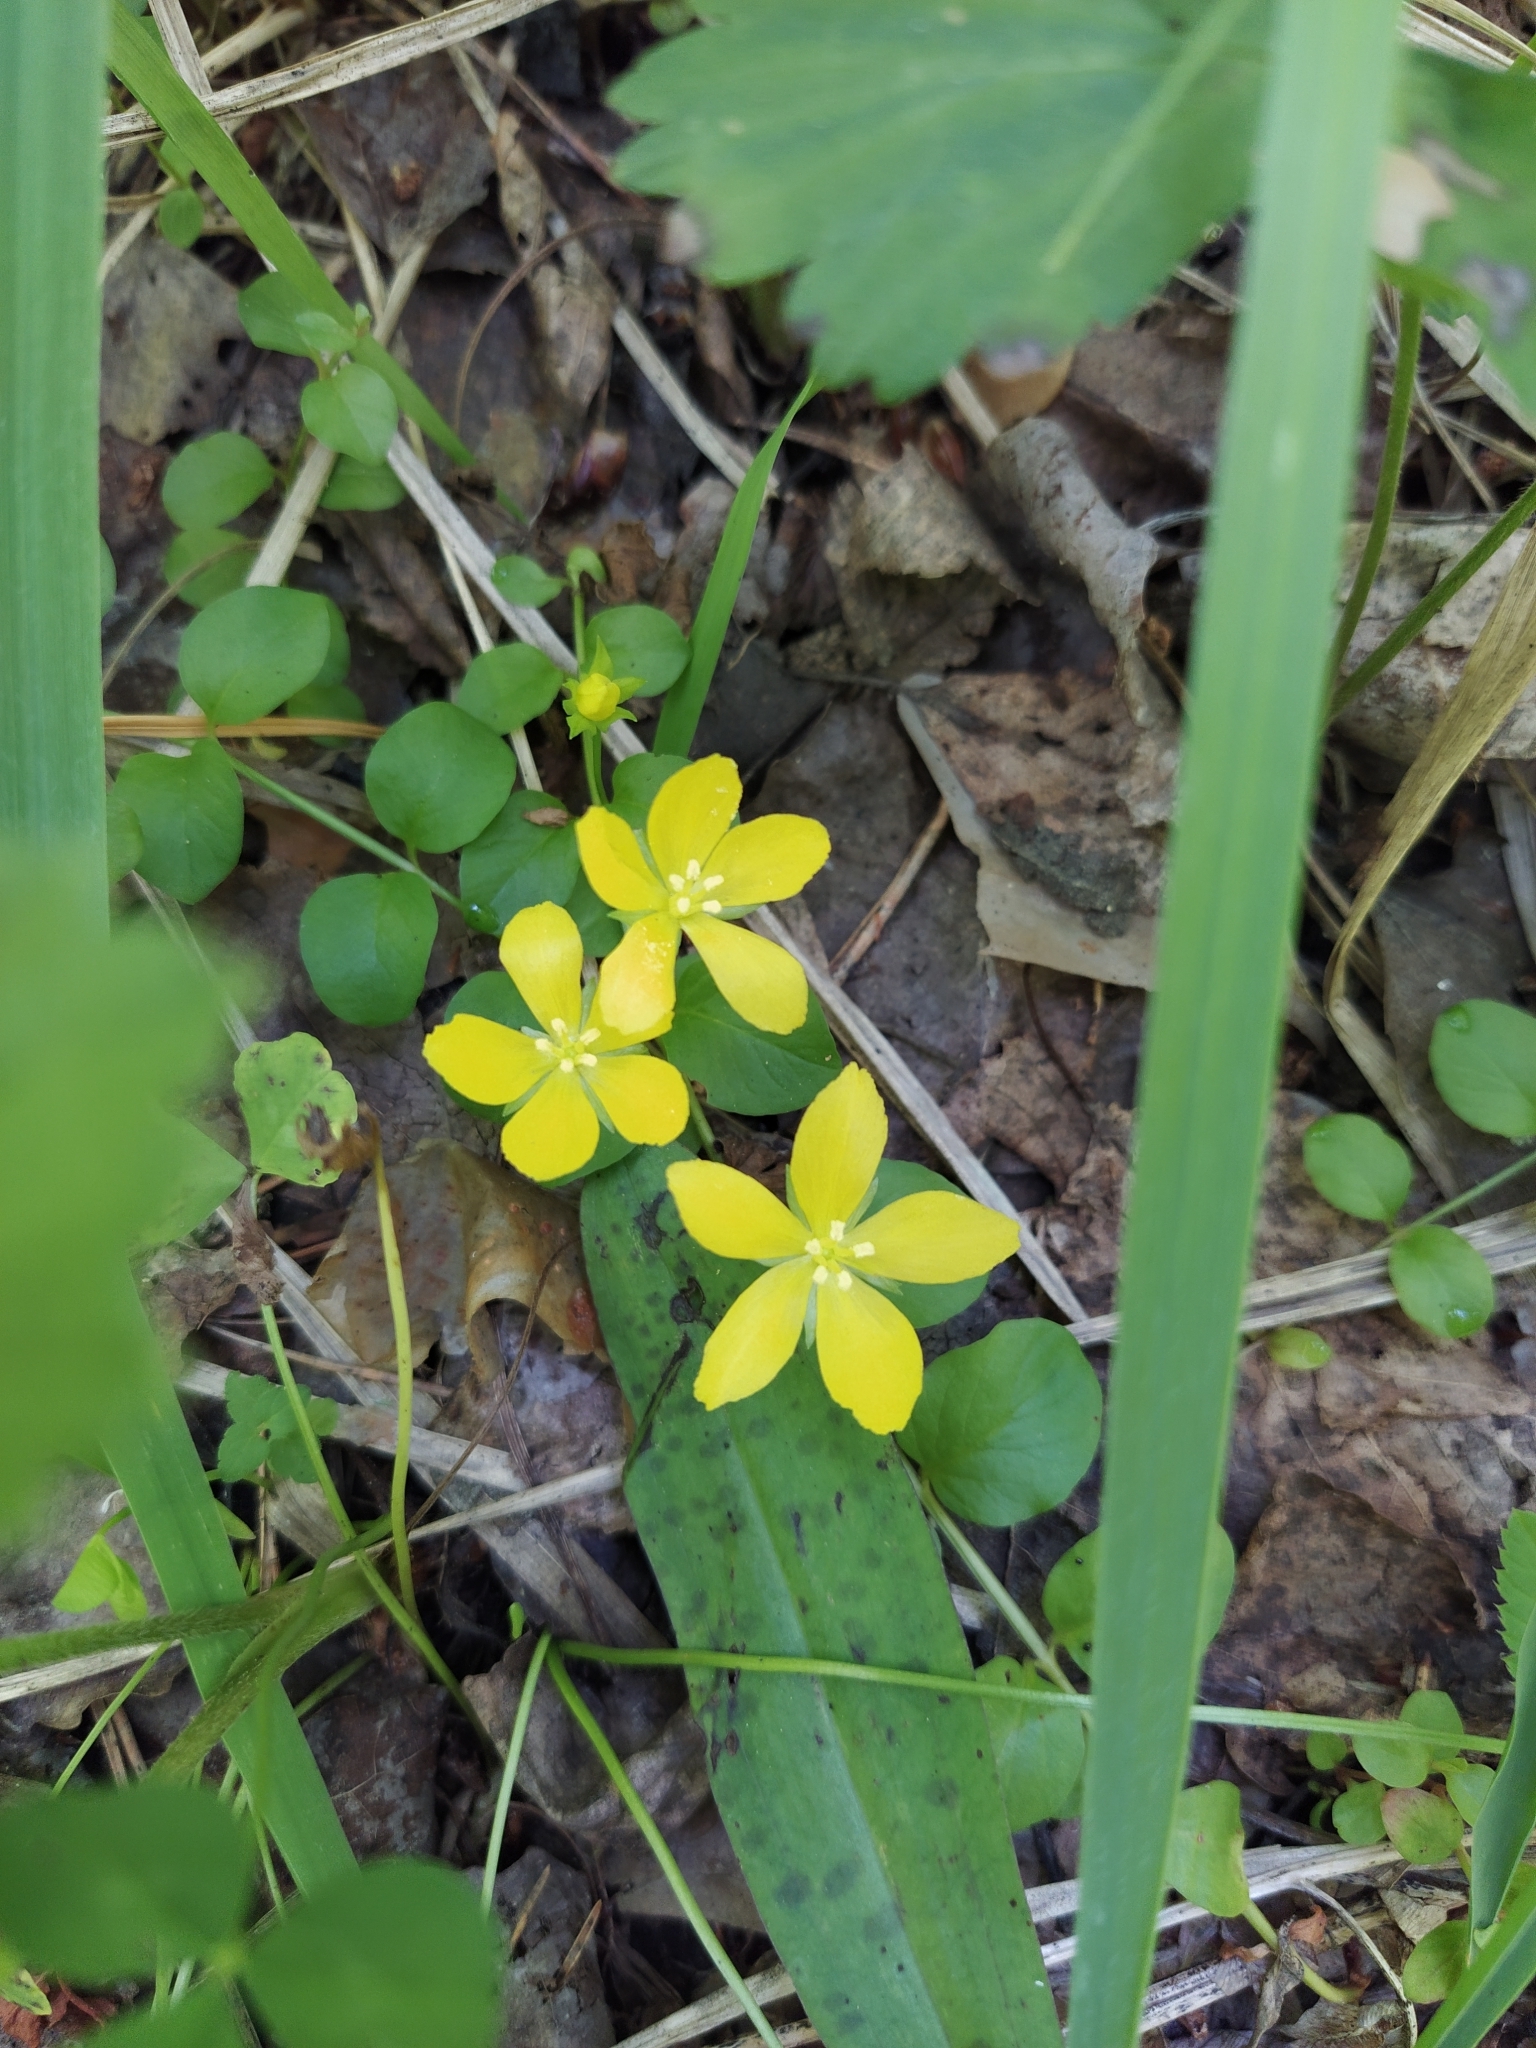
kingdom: Plantae
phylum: Tracheophyta
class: Magnoliopsida
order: Ericales
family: Primulaceae
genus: Lysimachia
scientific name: Lysimachia nummularia
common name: Moneywort
